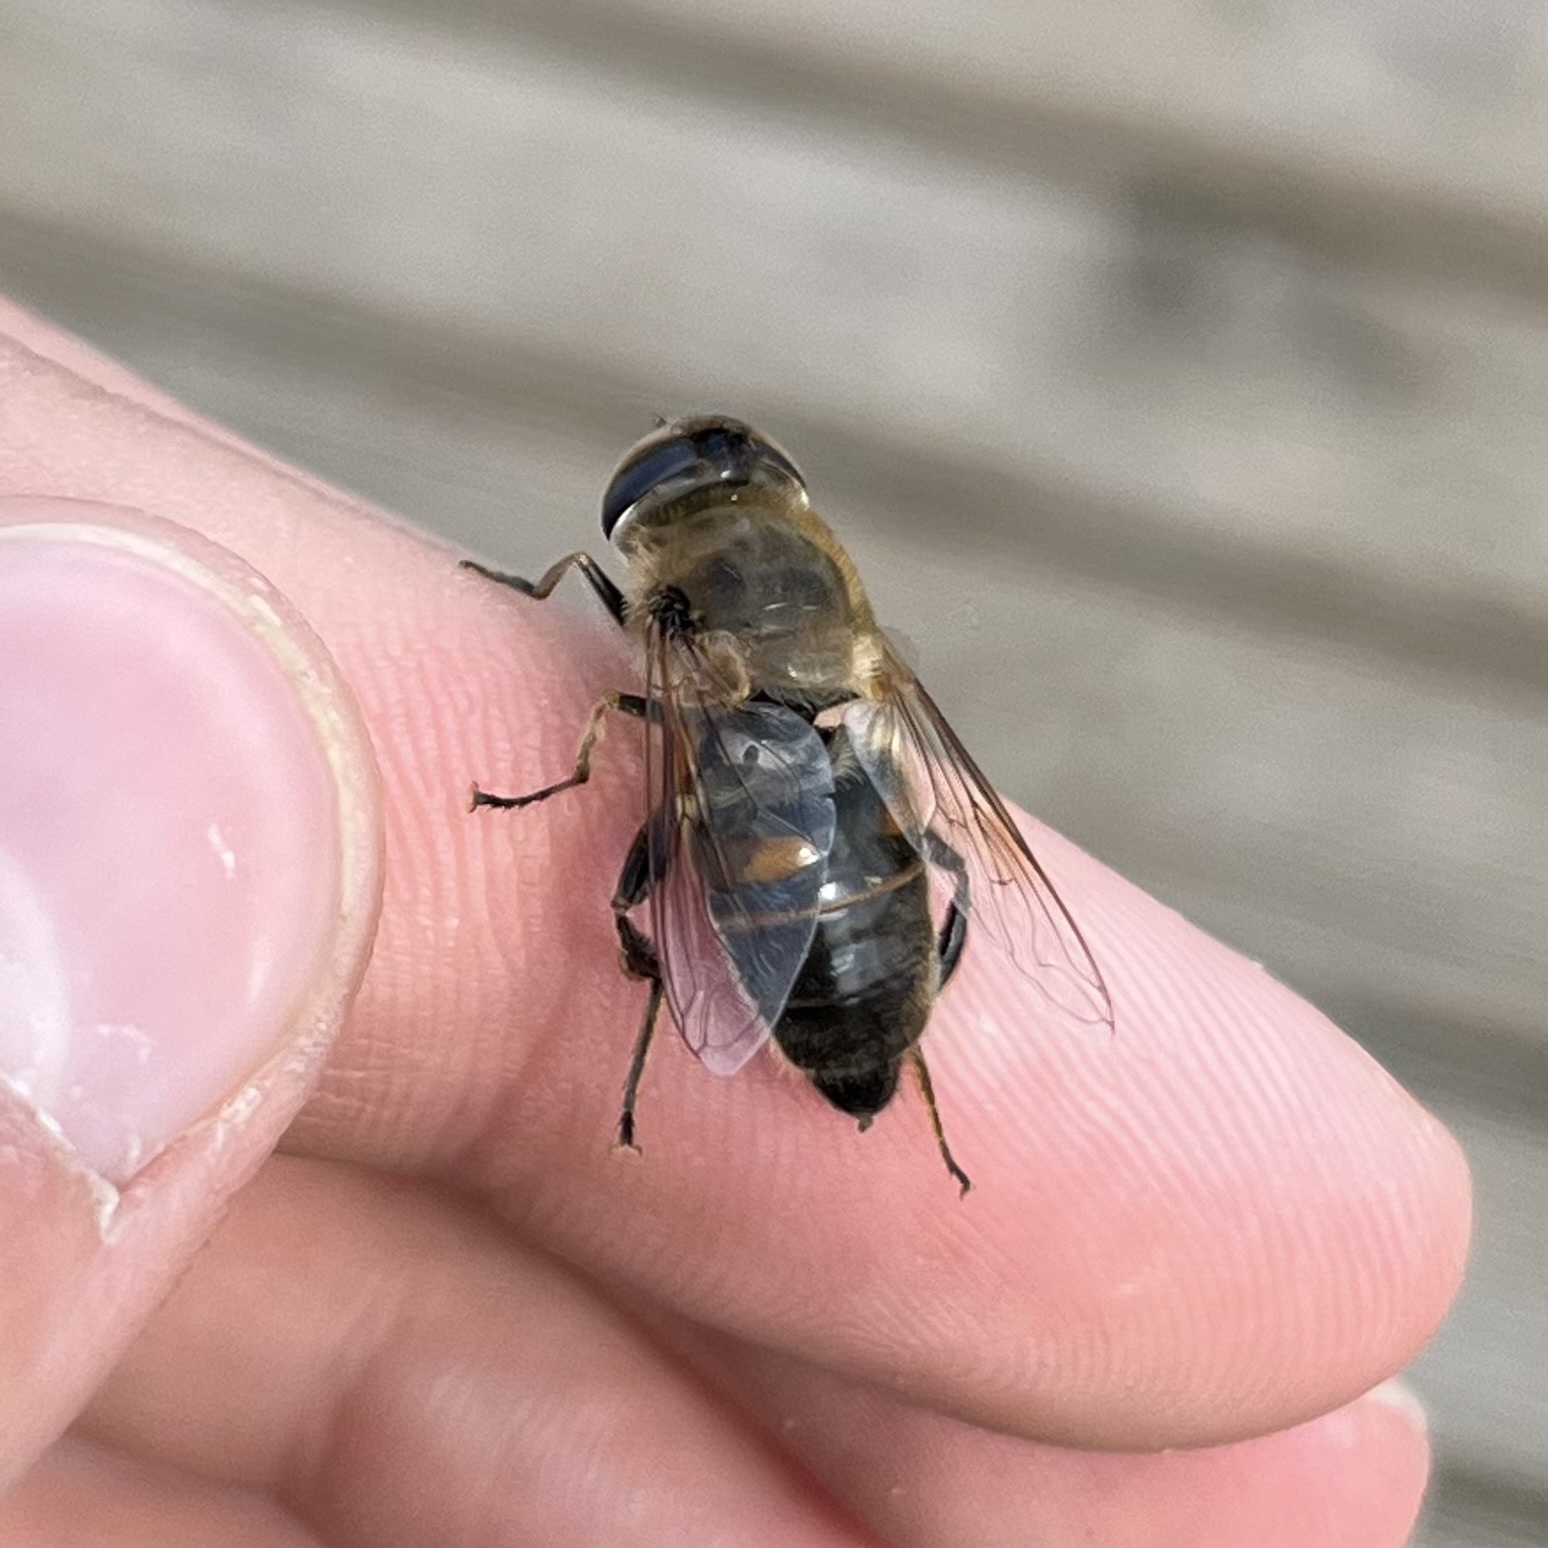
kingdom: Animalia
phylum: Arthropoda
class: Insecta
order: Diptera
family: Syrphidae
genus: Eristalis
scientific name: Eristalis tenax
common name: Drone fly
